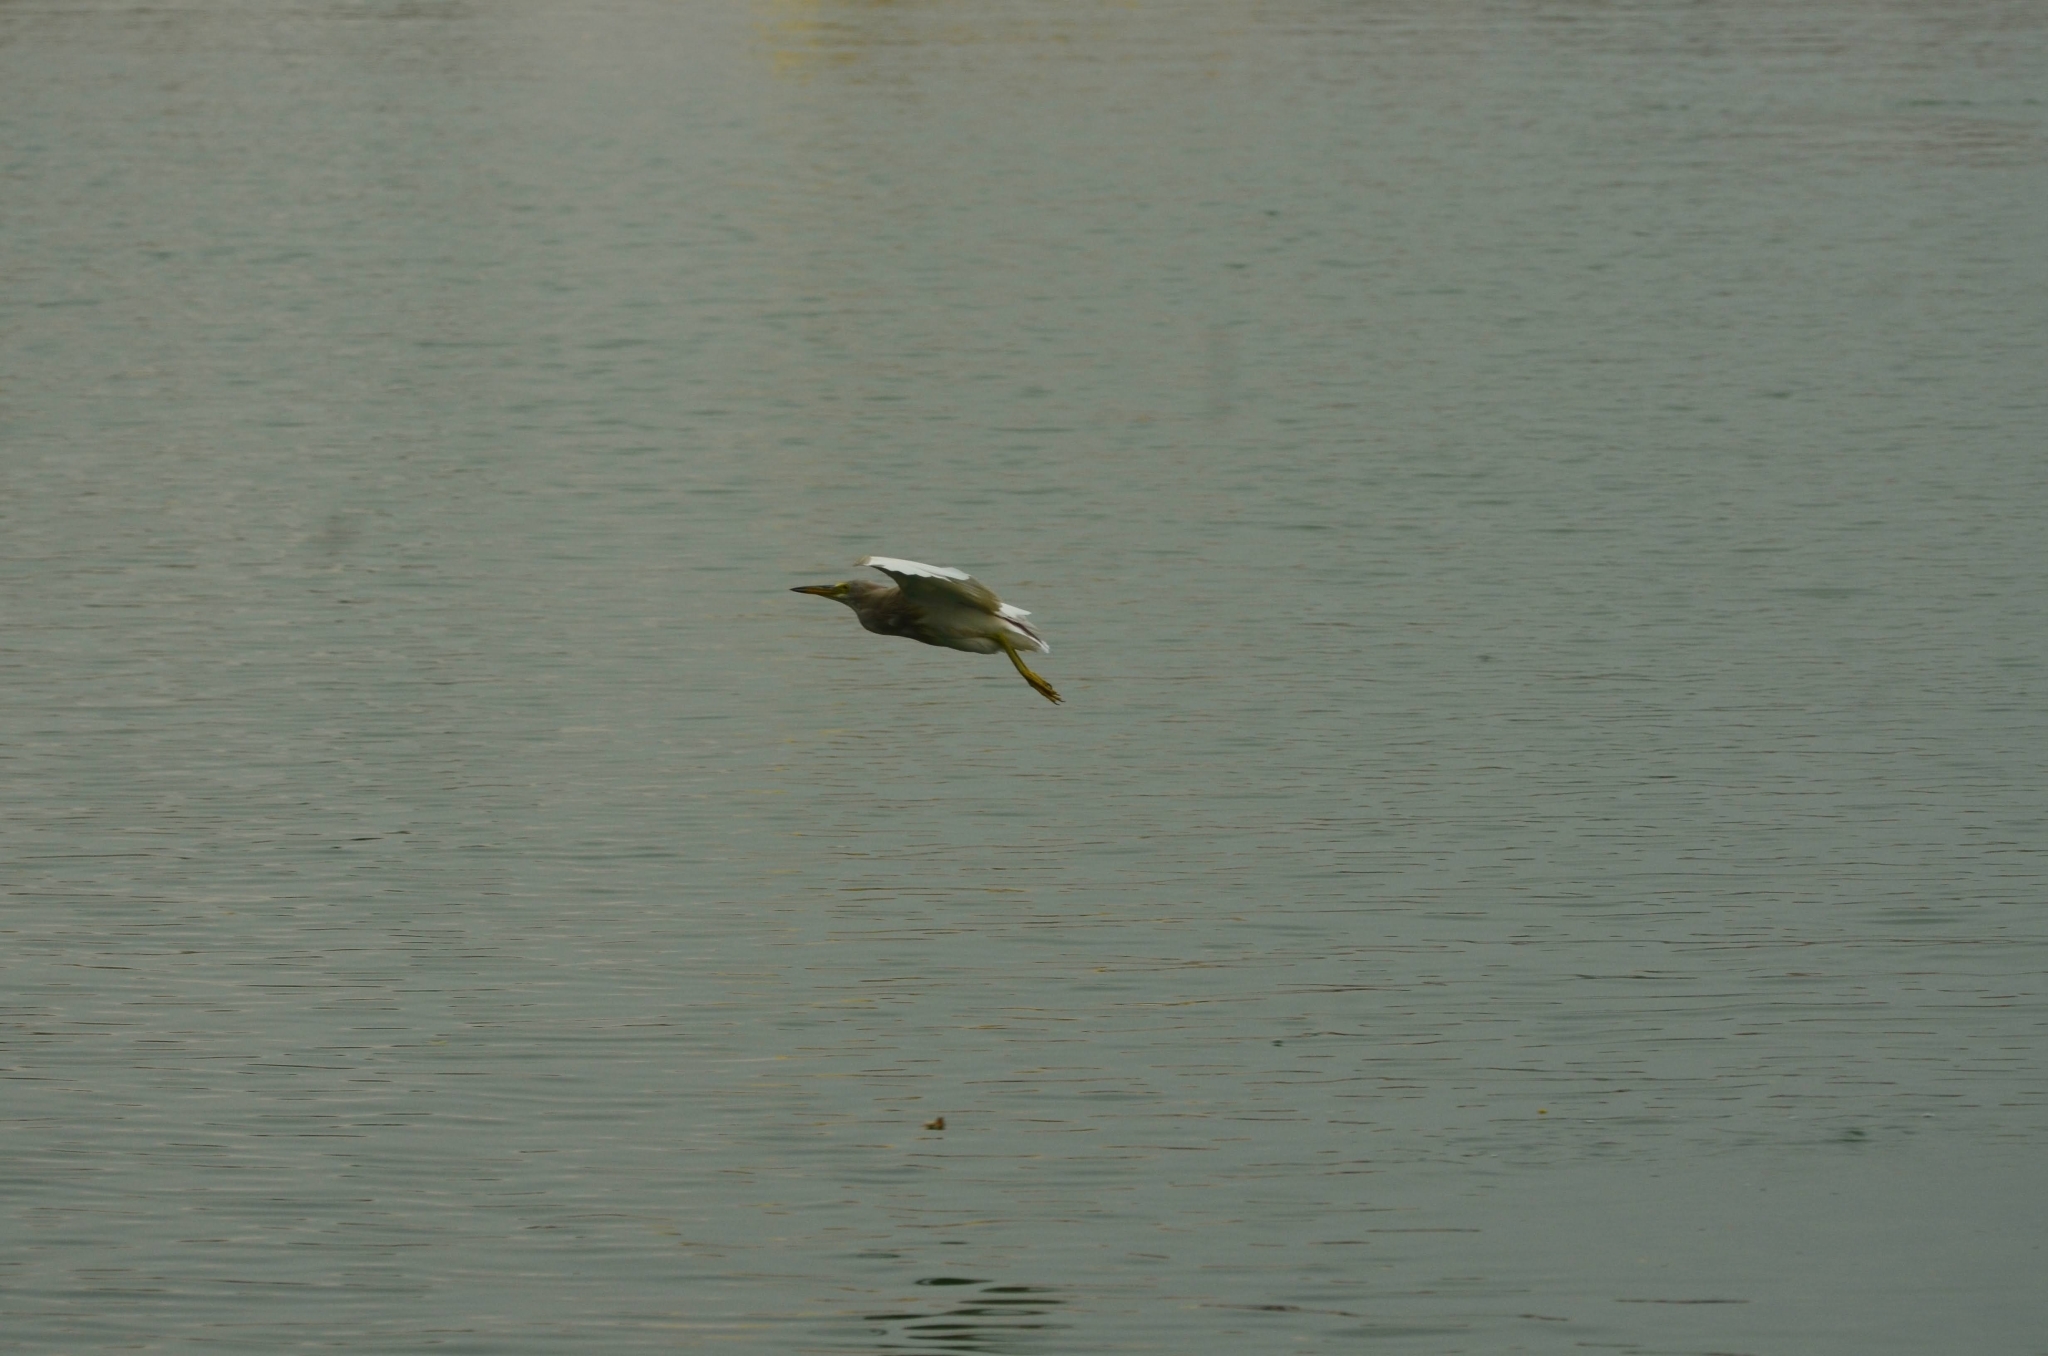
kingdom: Animalia
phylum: Chordata
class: Aves
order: Pelecaniformes
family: Ardeidae
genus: Ardeola
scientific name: Ardeola grayii
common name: Indian pond heron
